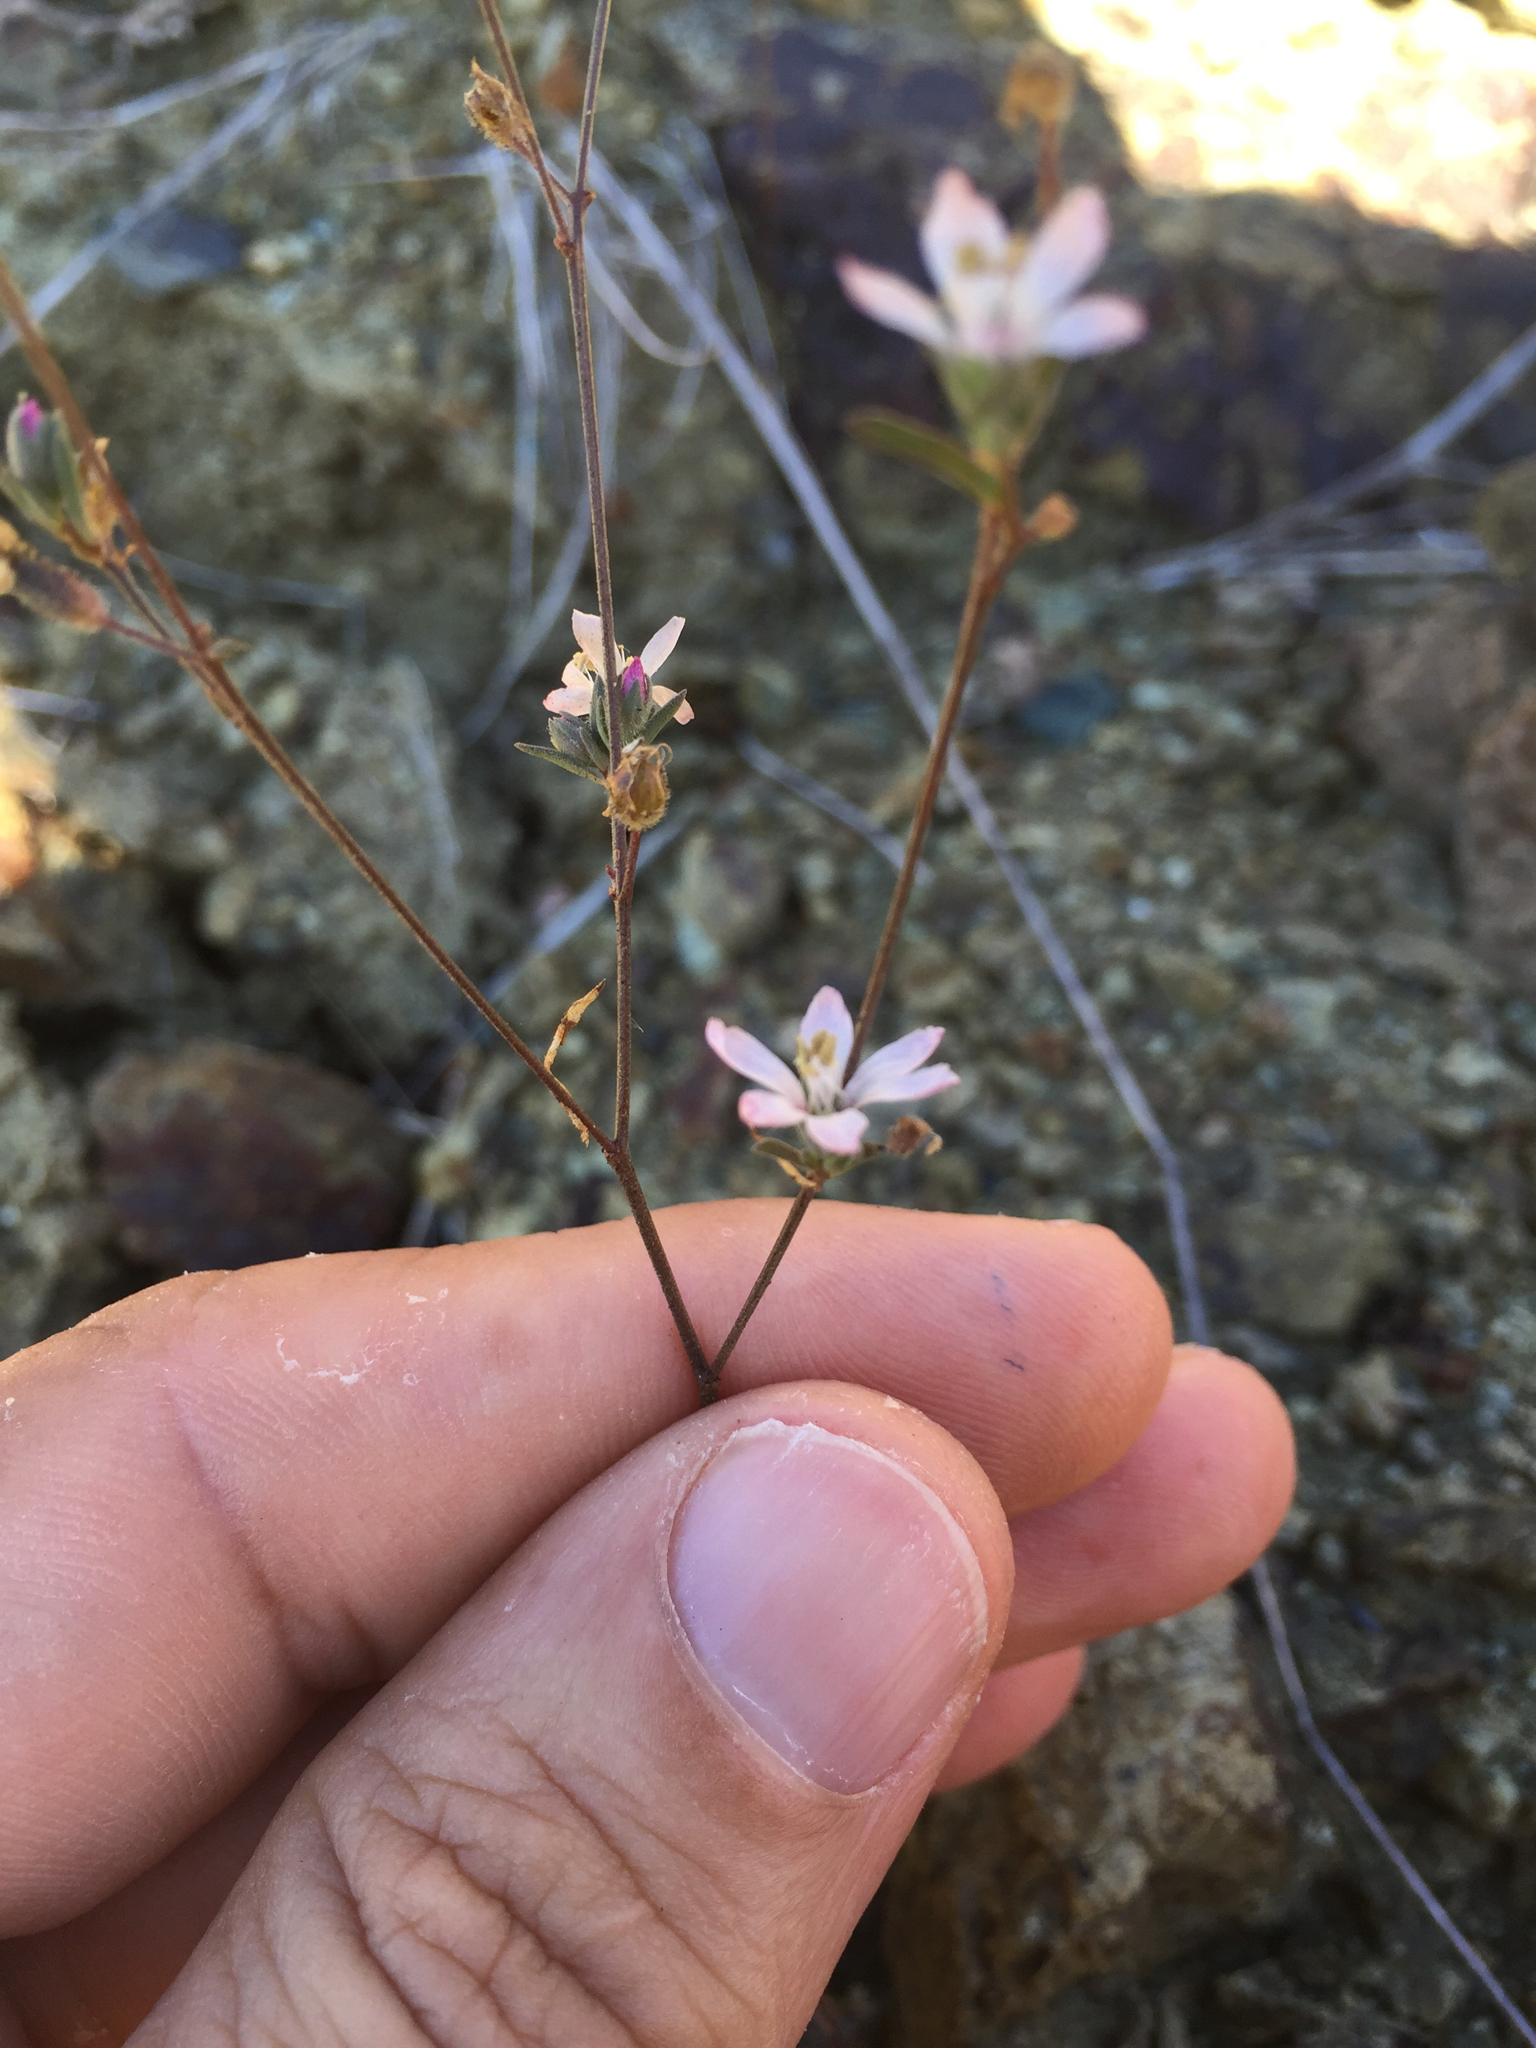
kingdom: Plantae
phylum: Tracheophyta
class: Magnoliopsida
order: Malpighiales
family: Linaceae
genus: Hesperolinon
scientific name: Hesperolinon congestum
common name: Marin dwarf-flax
